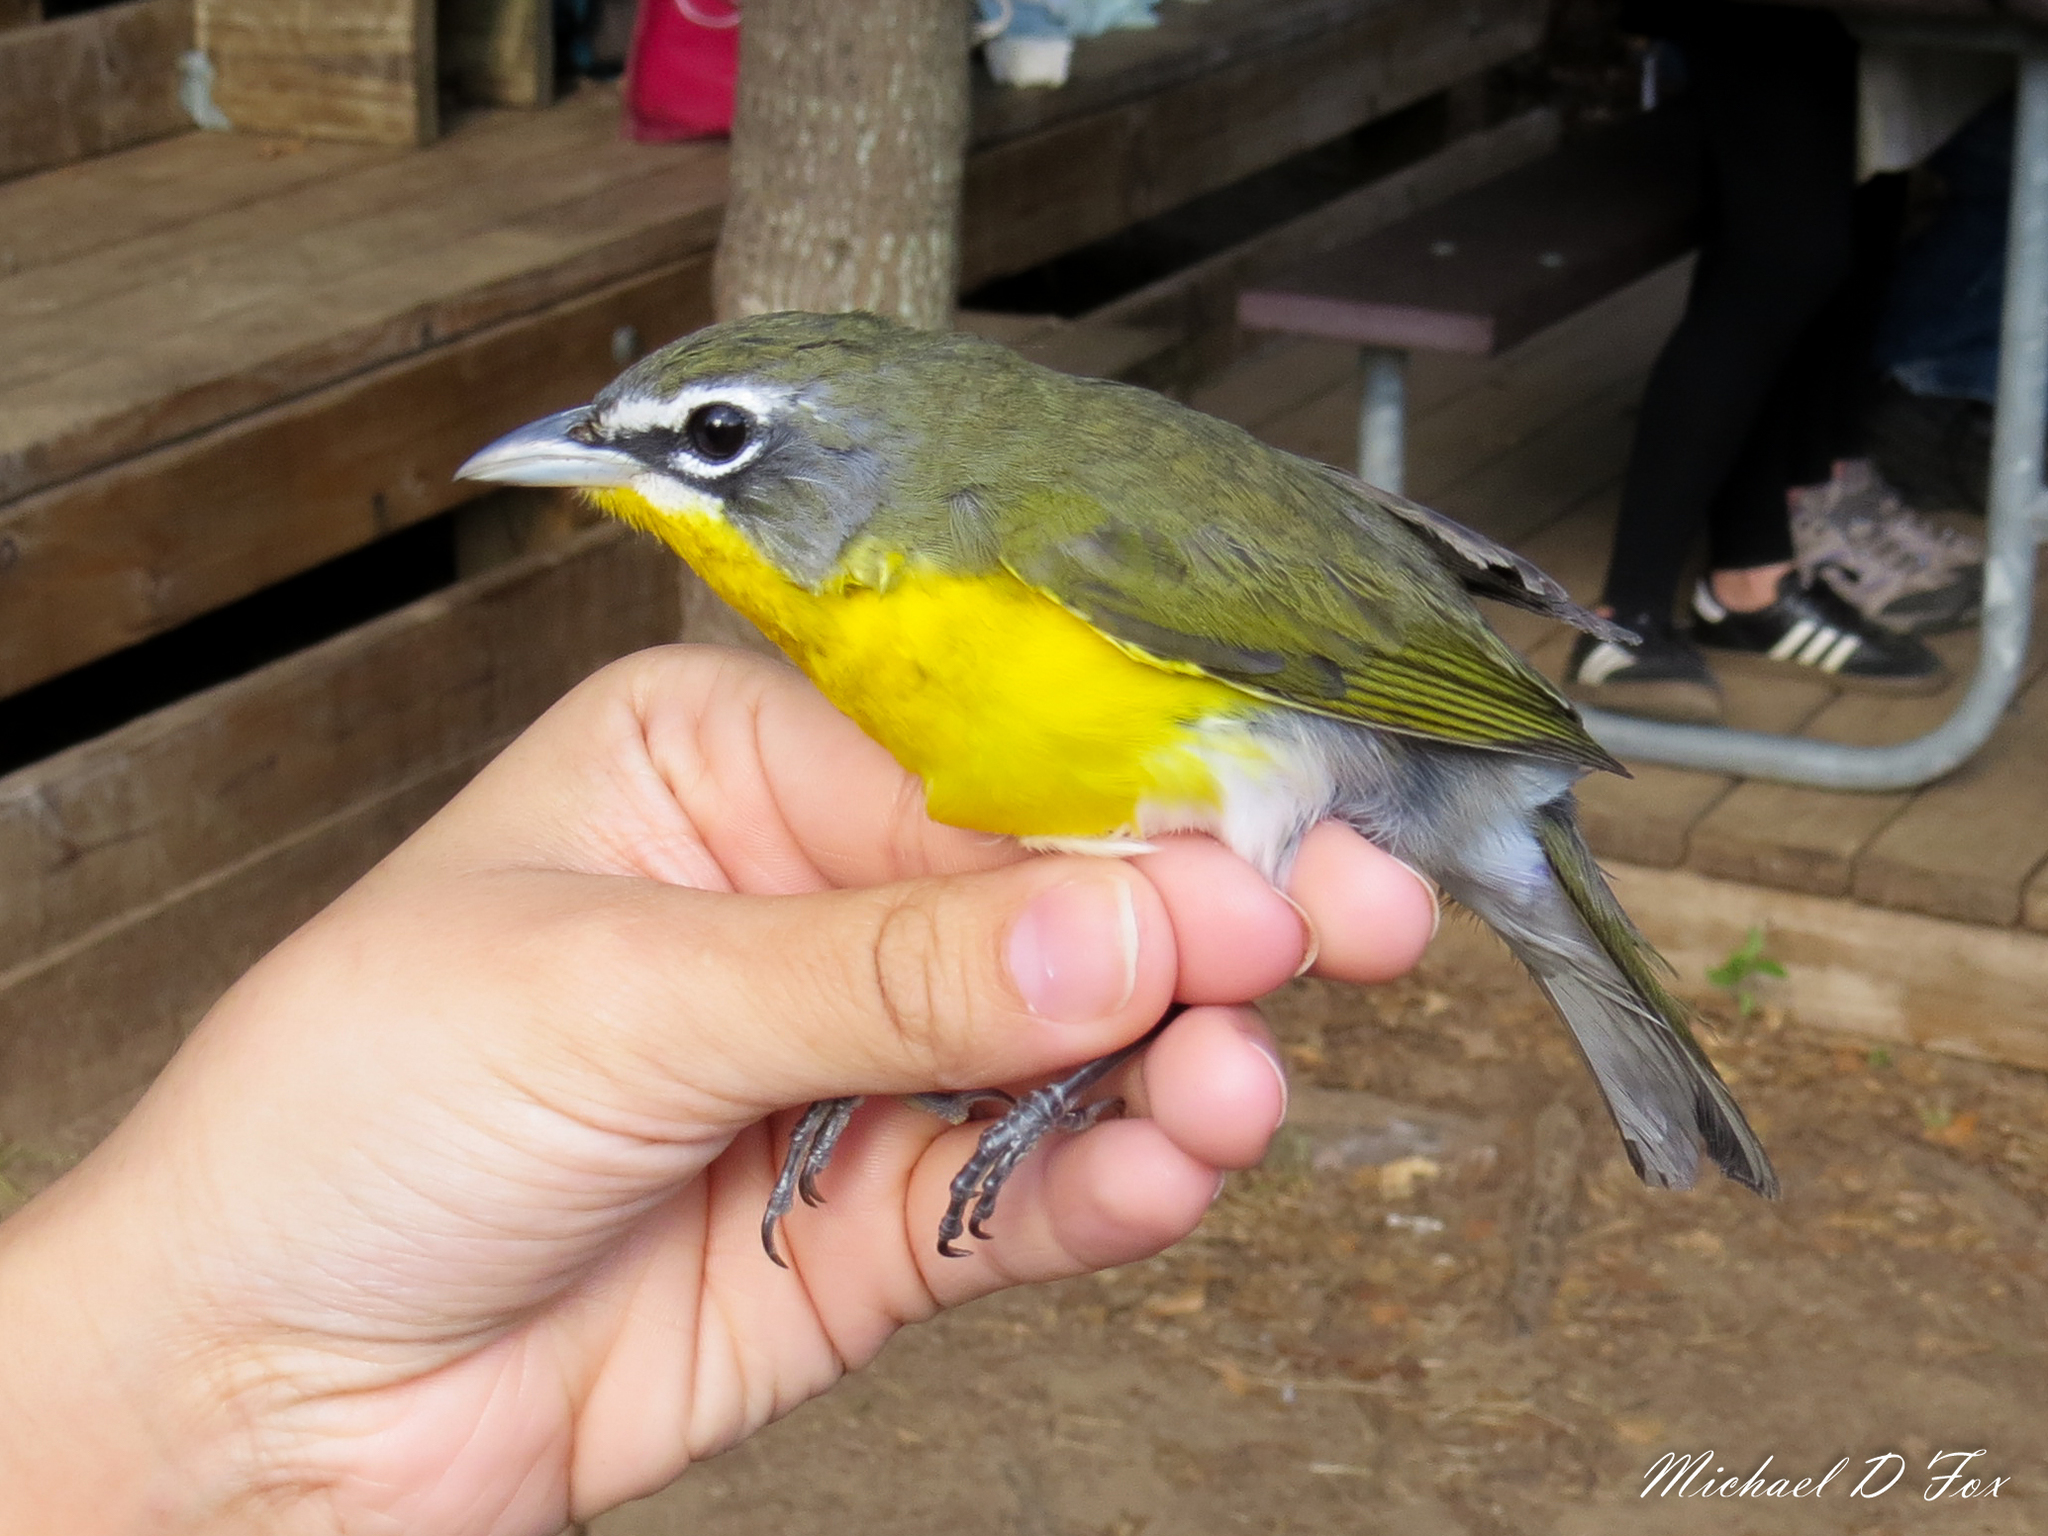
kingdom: Animalia
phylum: Chordata
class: Aves
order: Passeriformes
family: Parulidae
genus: Icteria
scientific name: Icteria virens
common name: Yellow-breasted chat
